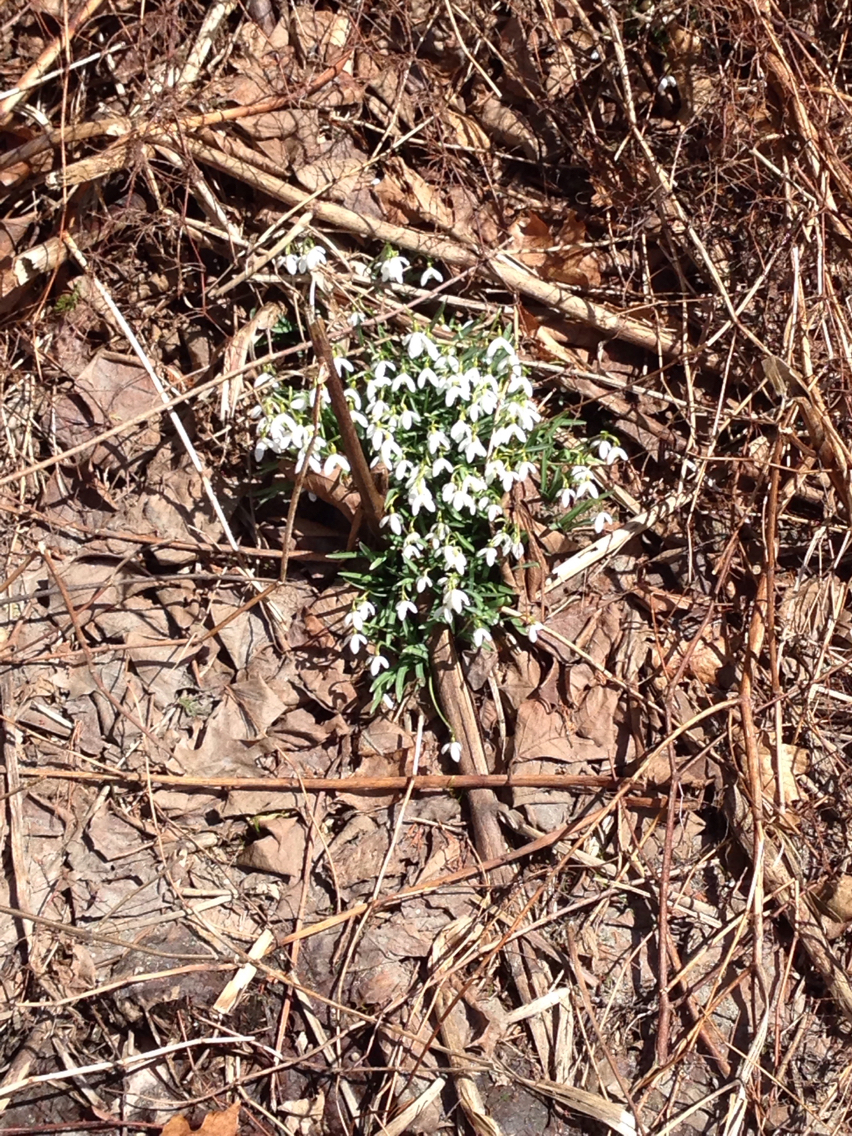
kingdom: Plantae
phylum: Tracheophyta
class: Liliopsida
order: Asparagales
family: Amaryllidaceae
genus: Galanthus
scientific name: Galanthus nivalis
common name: Snowdrop
